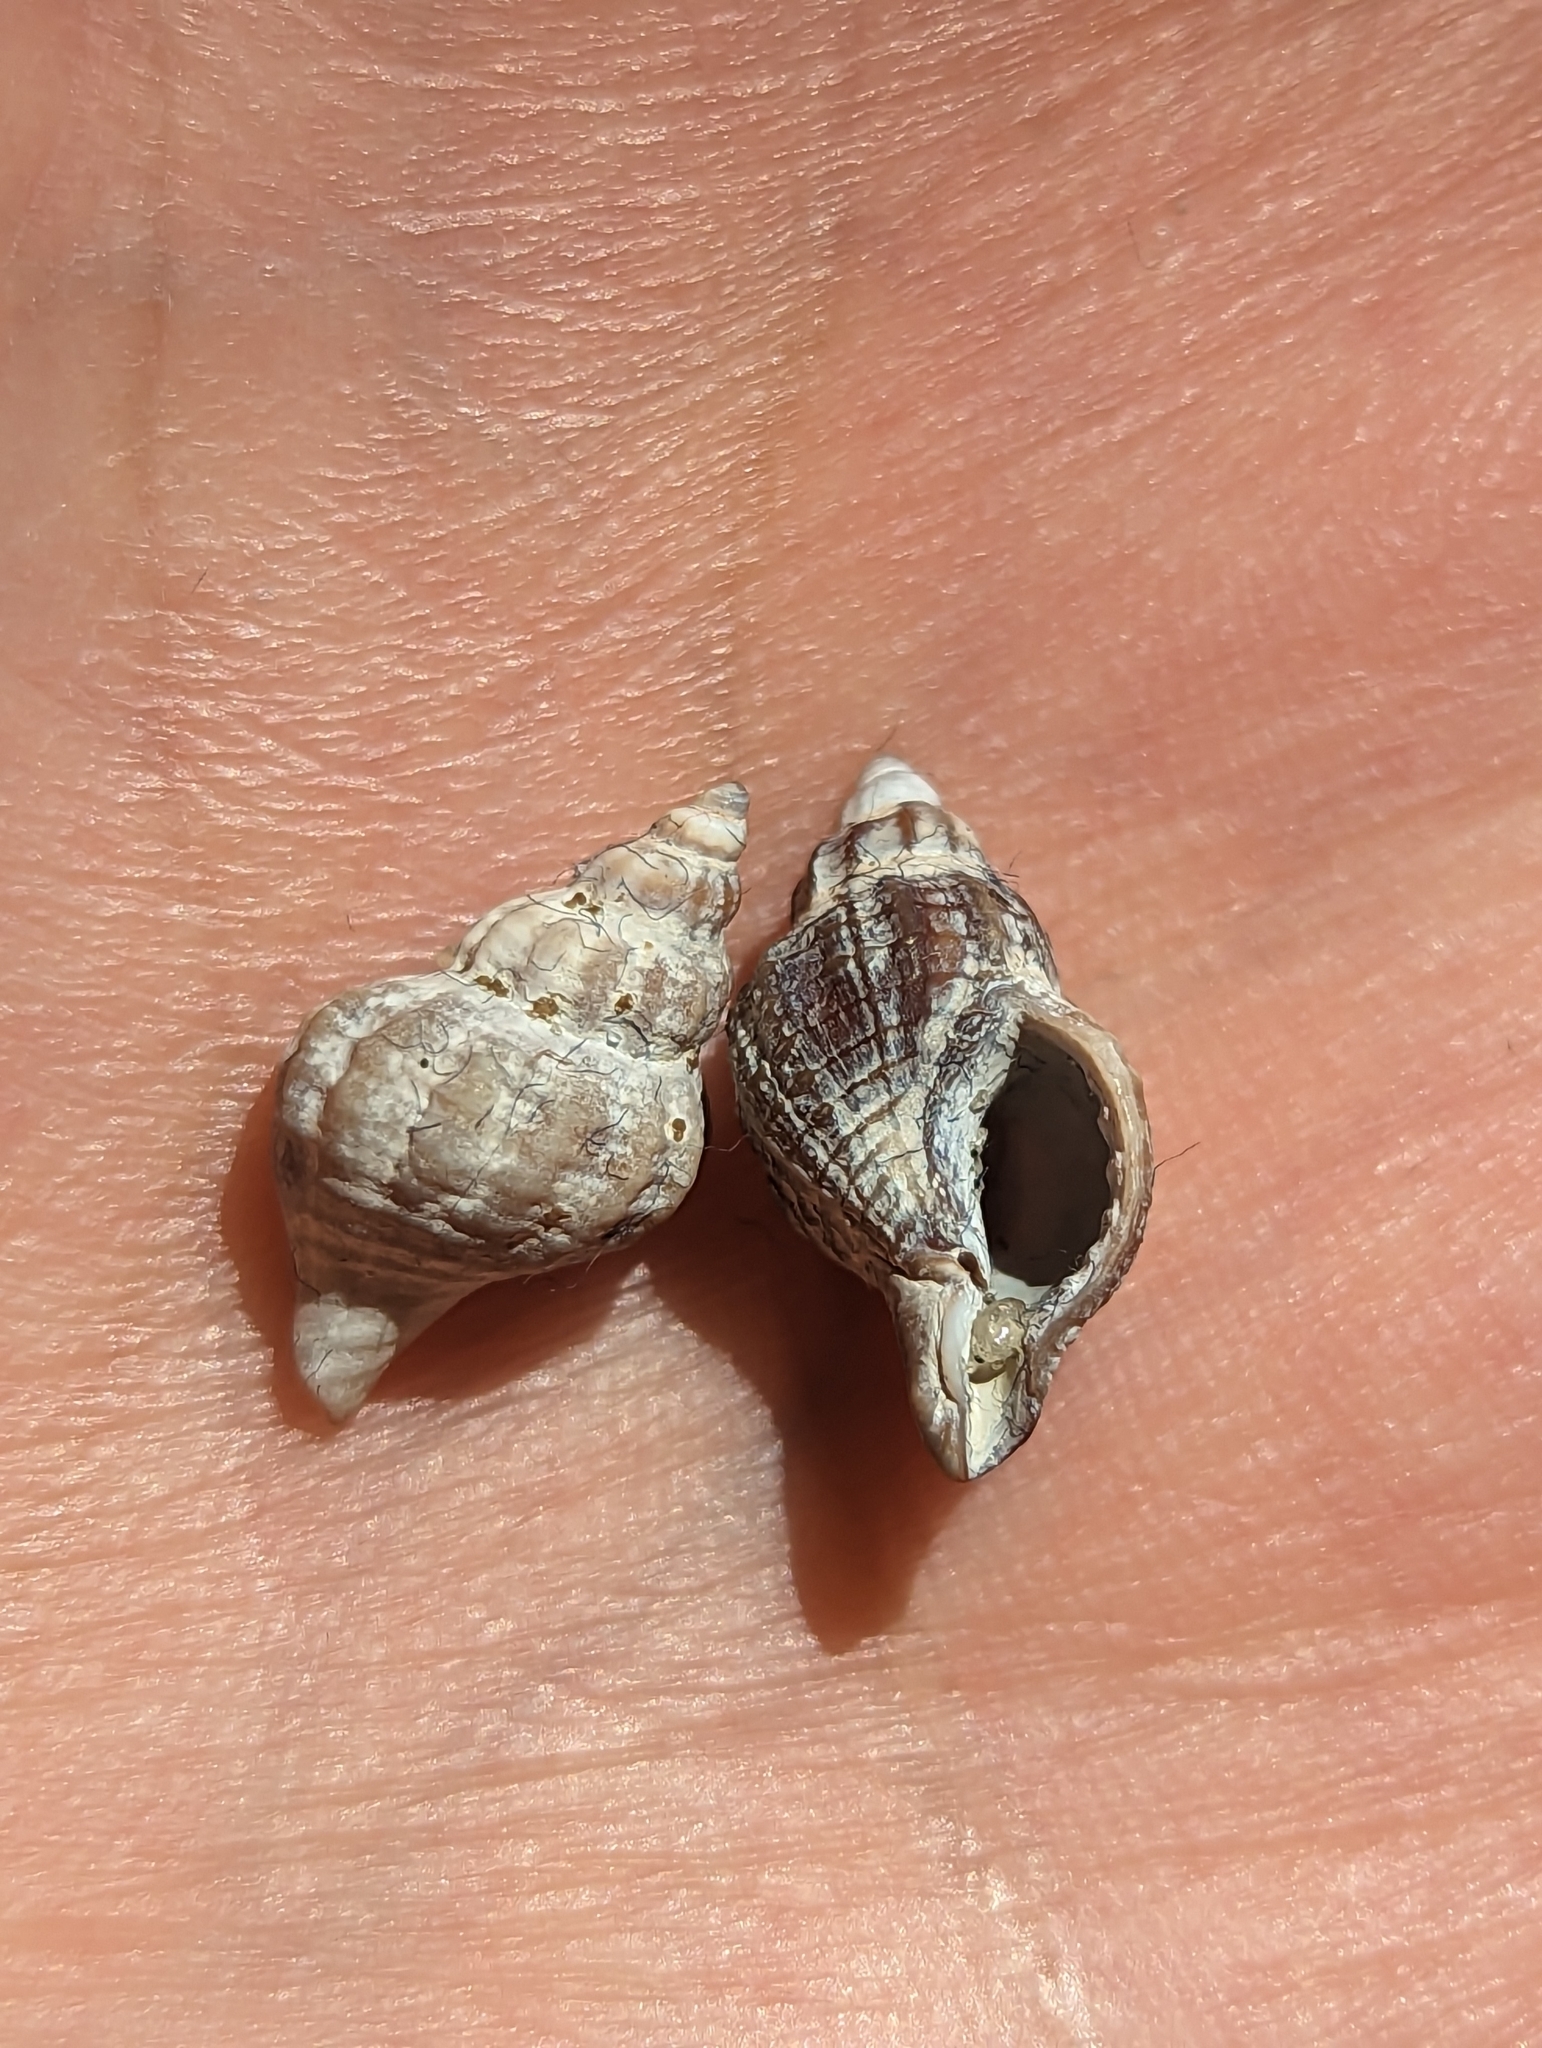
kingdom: Animalia
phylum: Mollusca
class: Gastropoda
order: Neogastropoda
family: Muricidae
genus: Urosalpinx
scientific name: Urosalpinx cinerea
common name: American sting winkle
